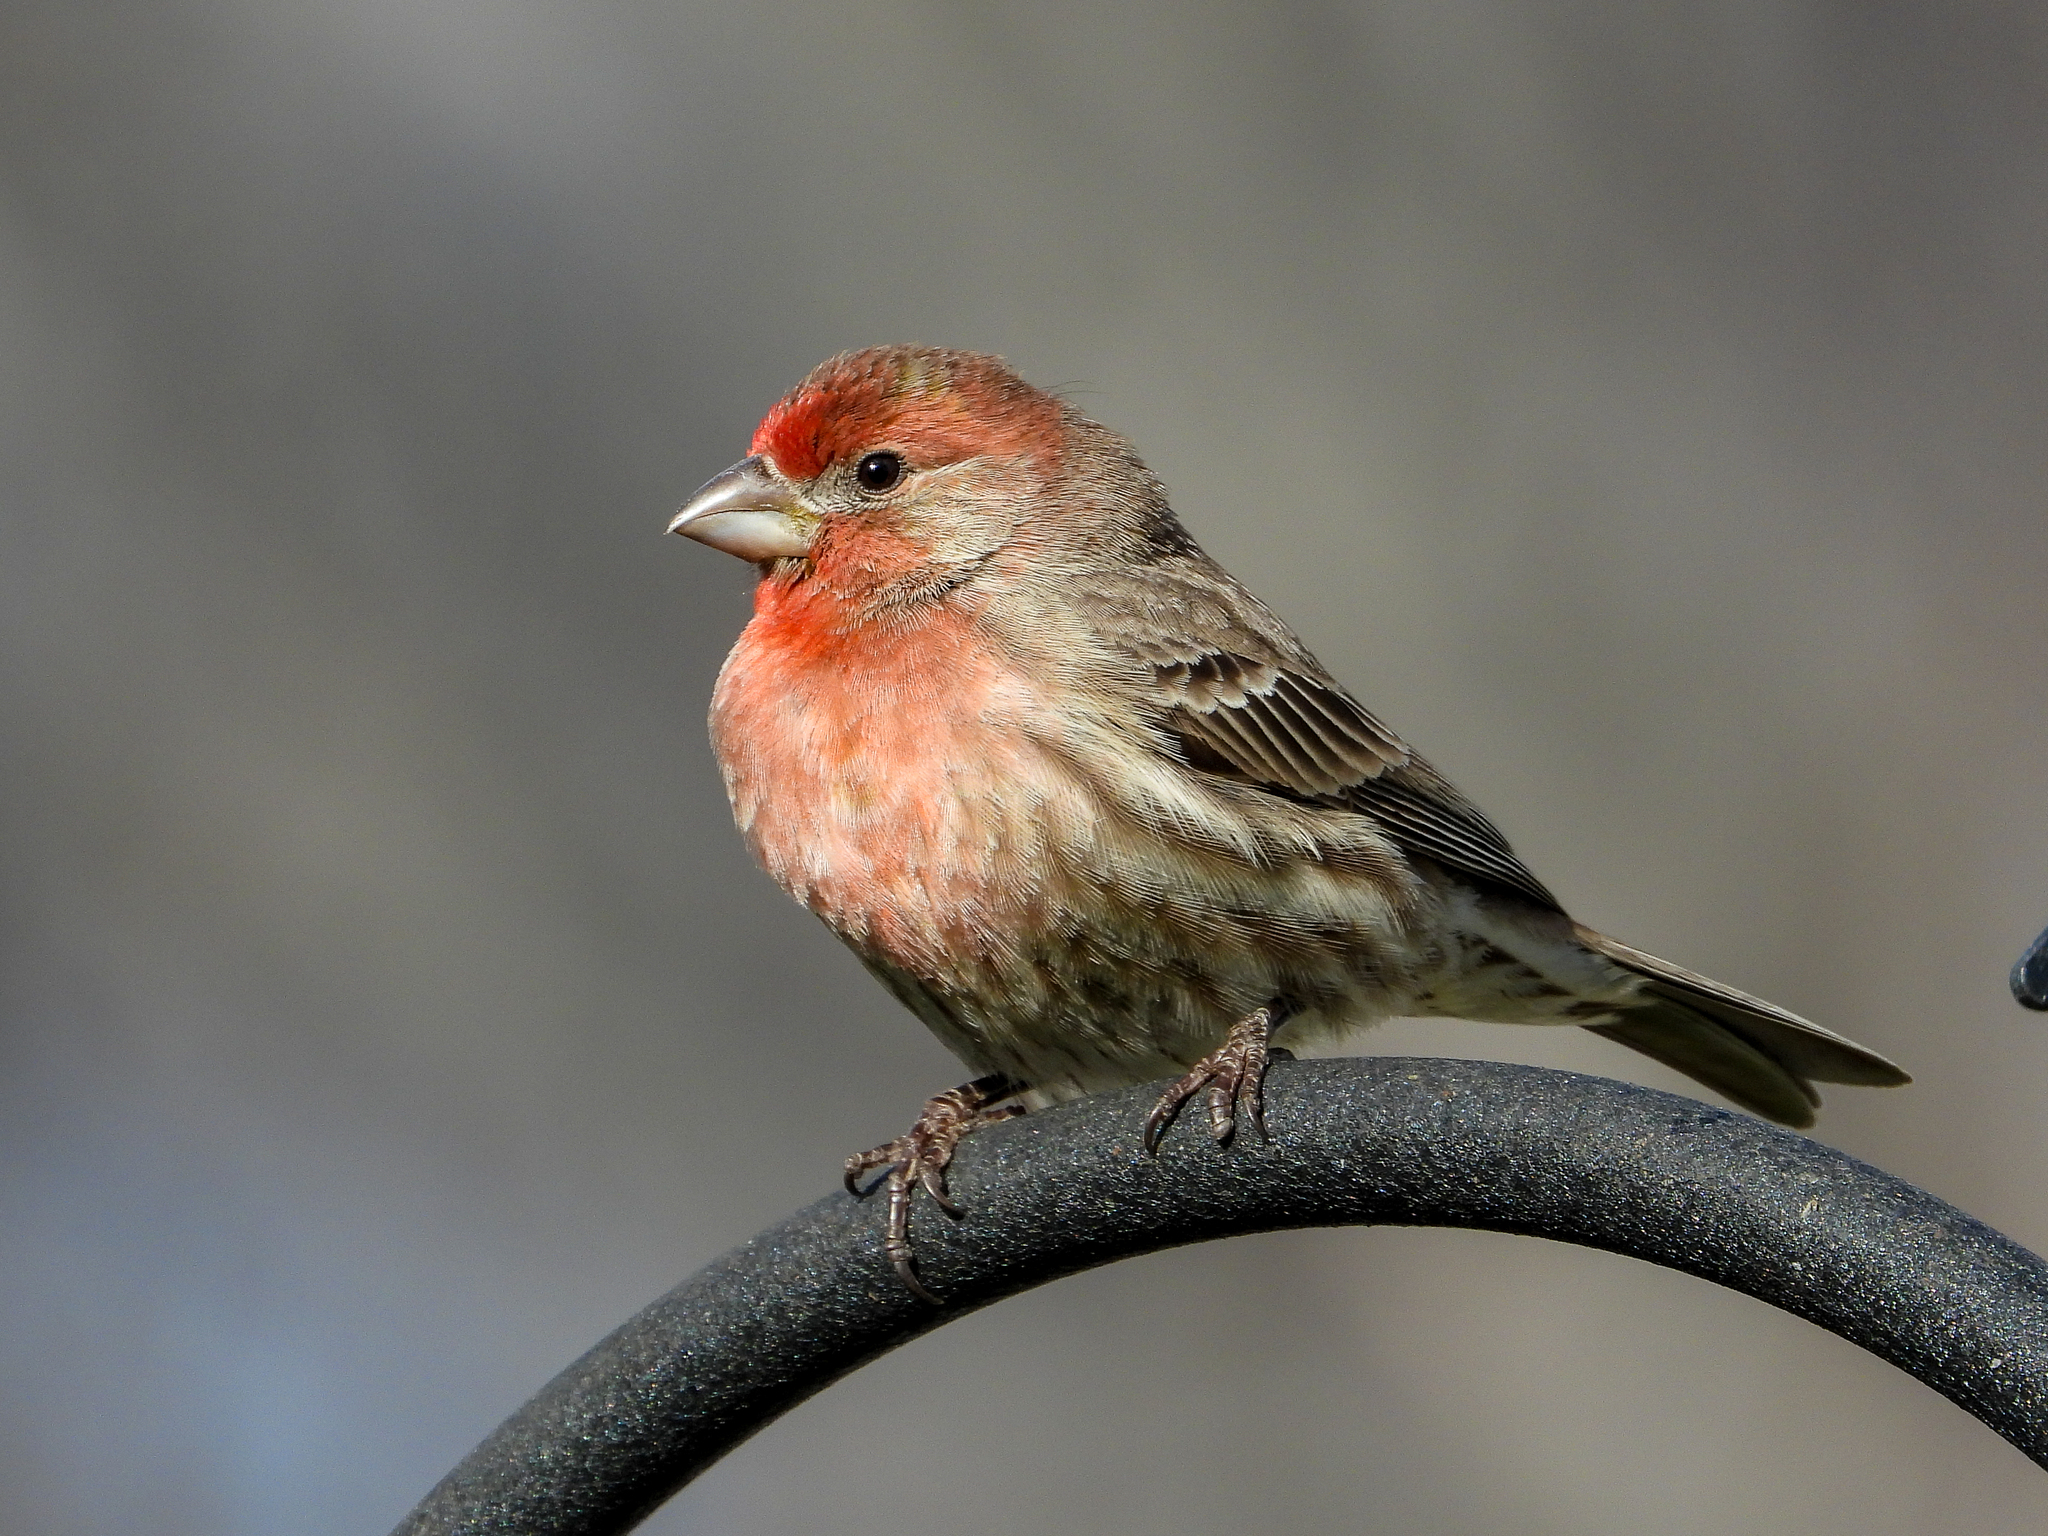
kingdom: Animalia
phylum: Chordata
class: Aves
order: Passeriformes
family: Fringillidae
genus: Haemorhous
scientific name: Haemorhous mexicanus
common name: House finch
